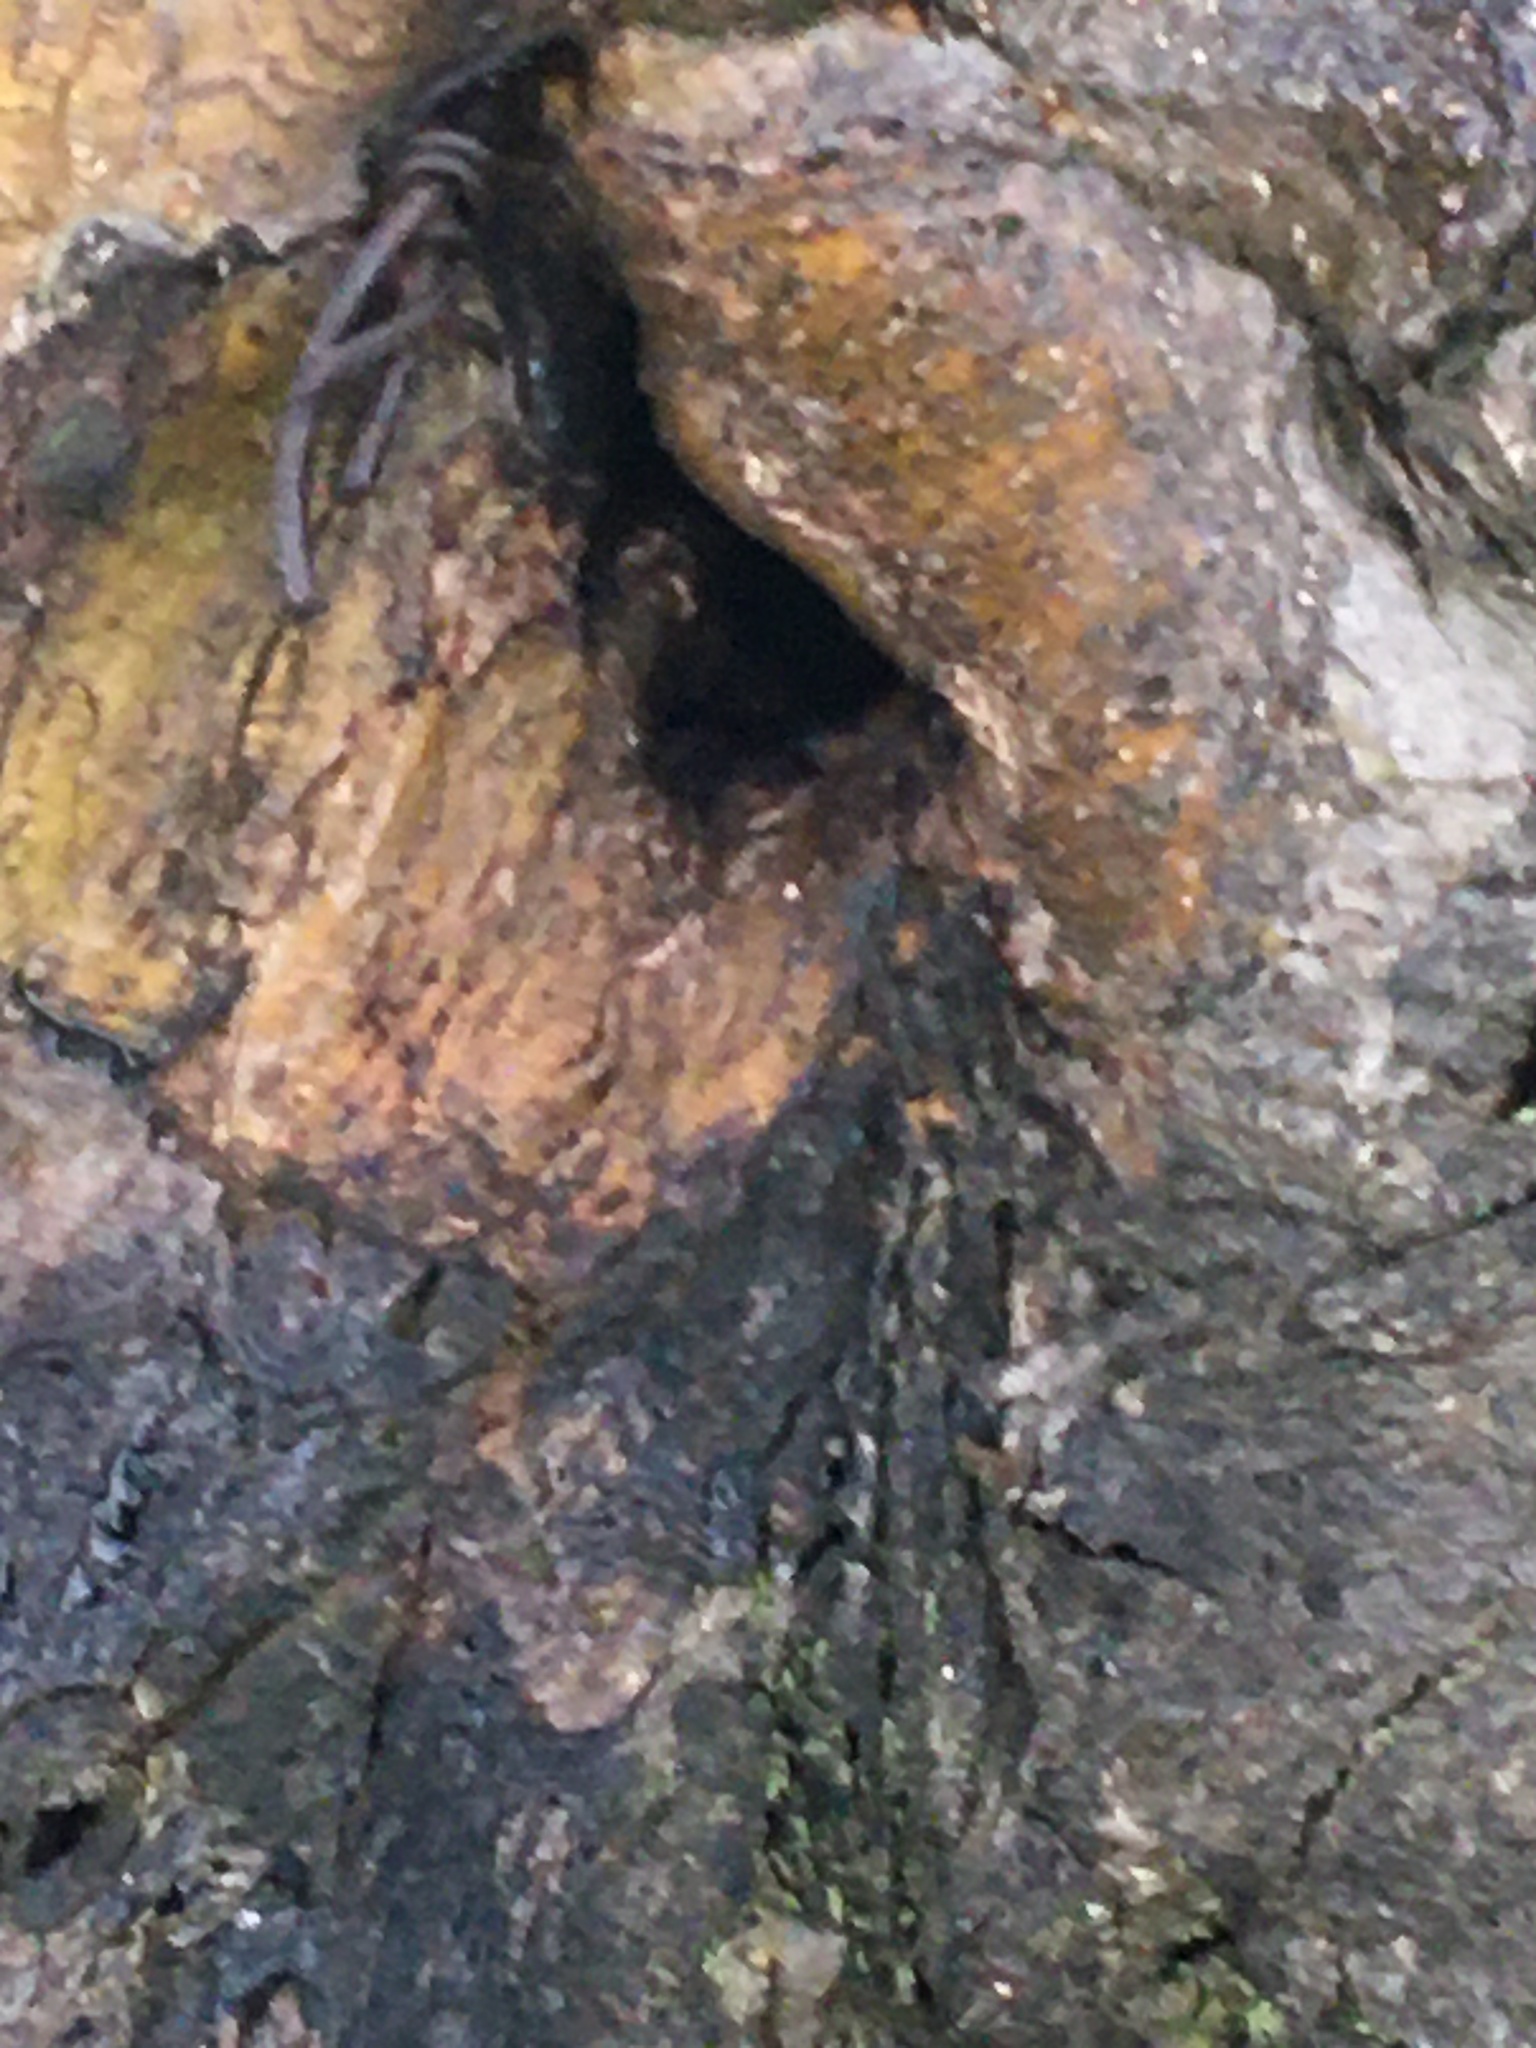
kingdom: Animalia
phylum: Arthropoda
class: Insecta
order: Hymenoptera
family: Apidae
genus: Apis
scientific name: Apis mellifera
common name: Honey bee
